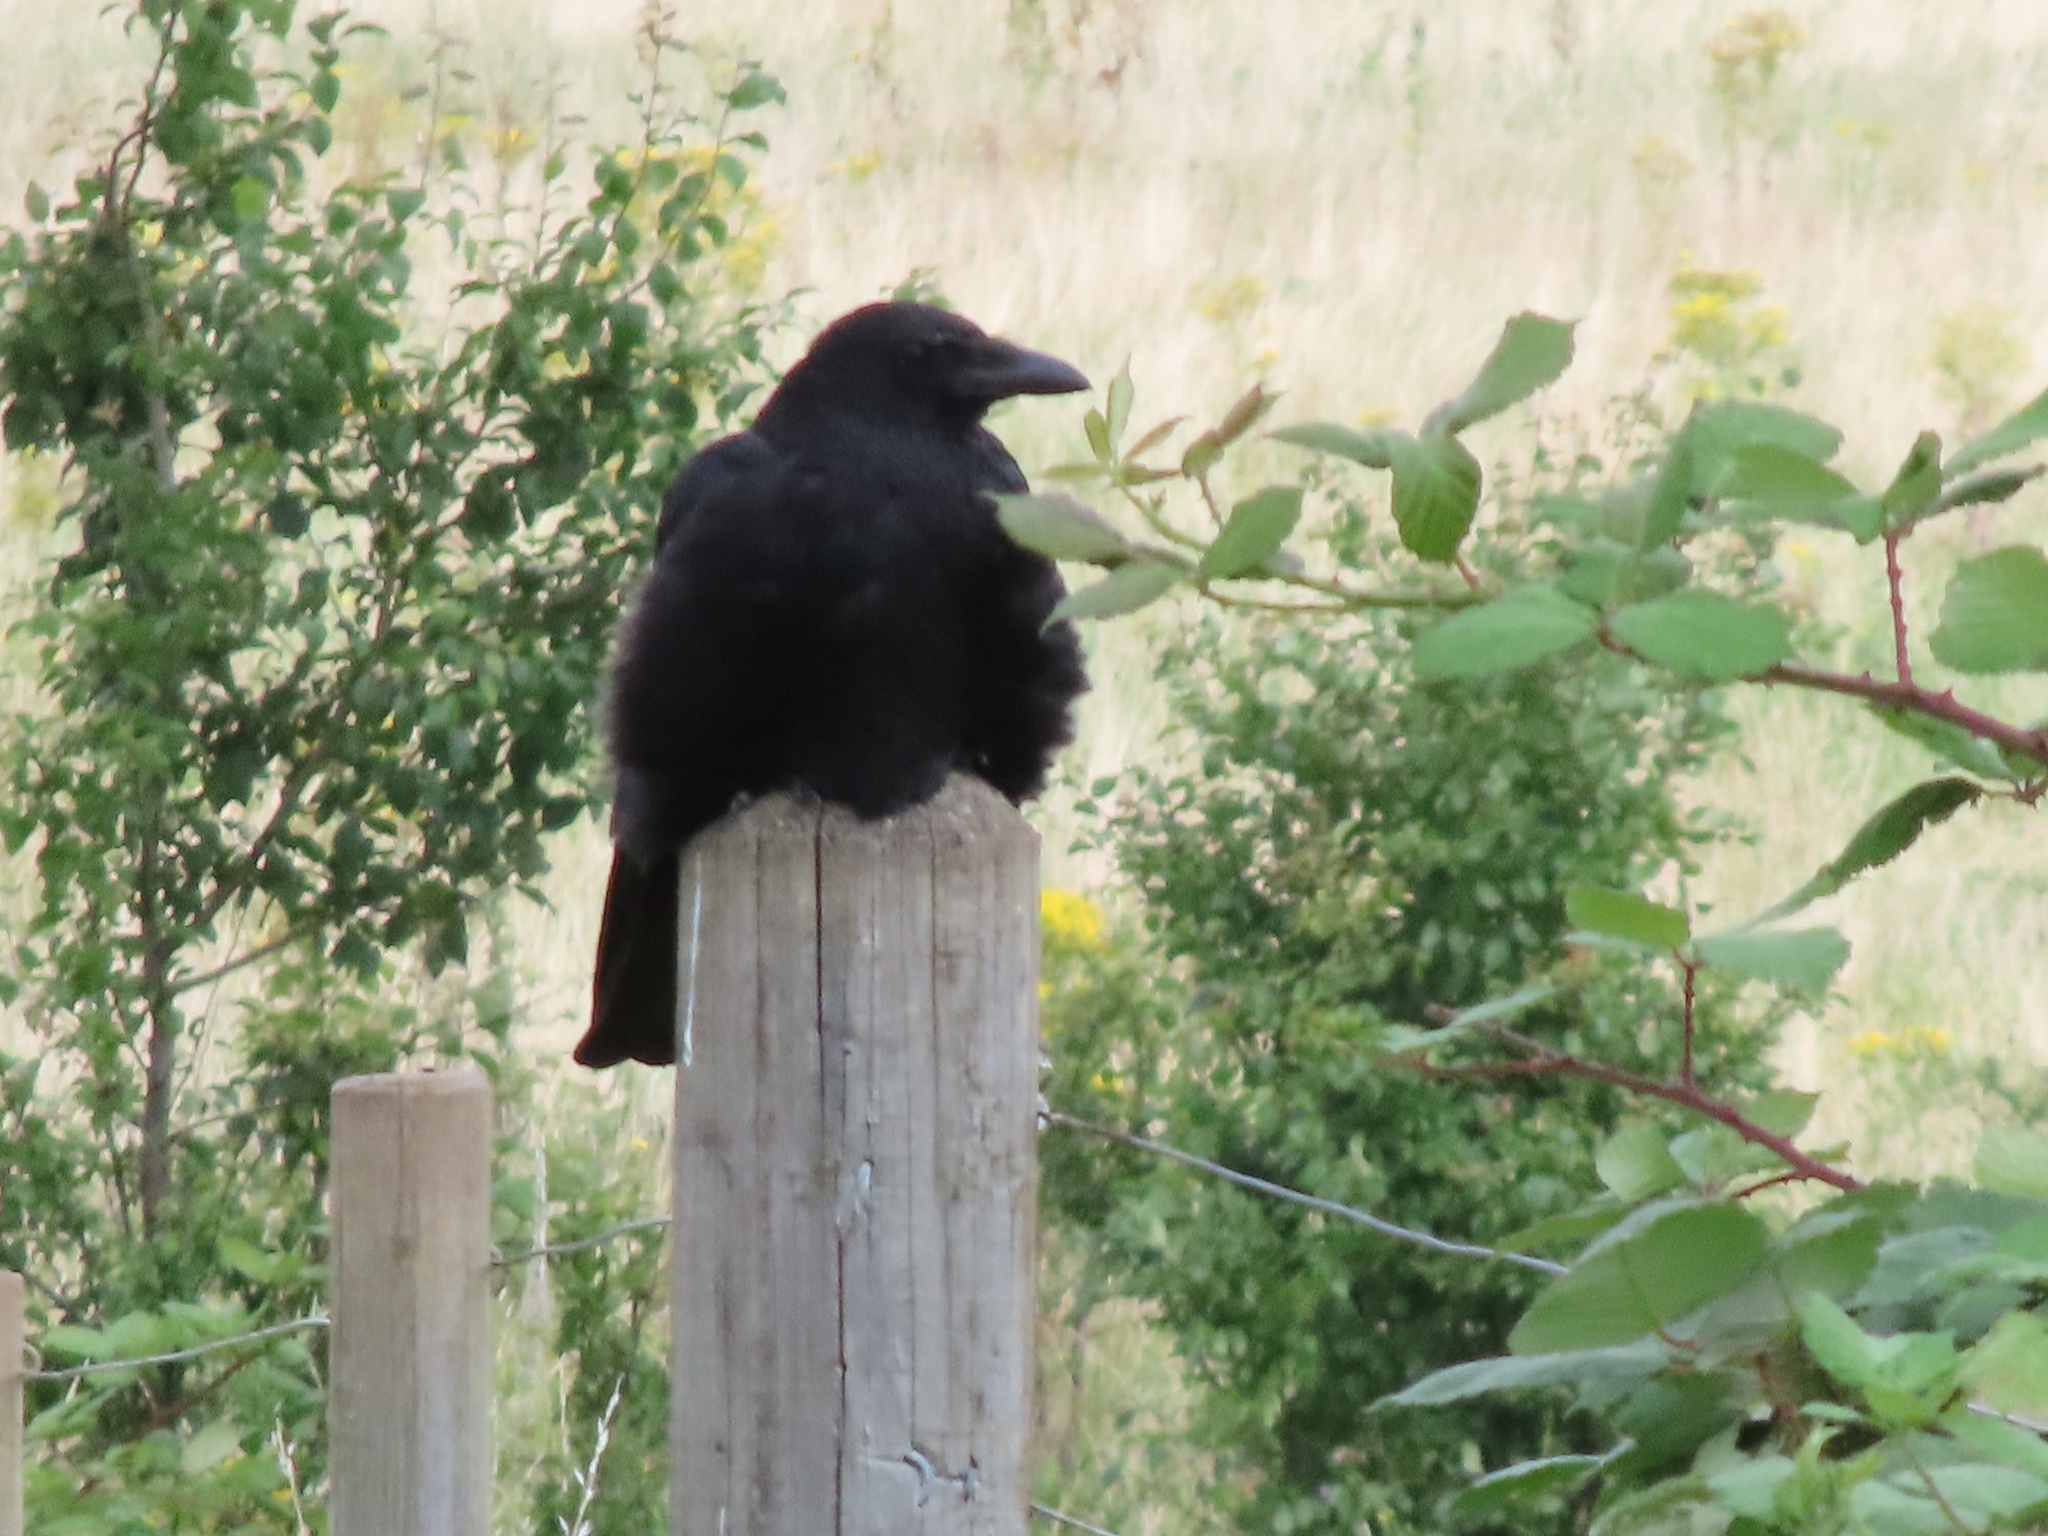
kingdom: Animalia
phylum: Chordata
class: Aves
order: Passeriformes
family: Corvidae
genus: Corvus
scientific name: Corvus corone
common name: Carrion crow
